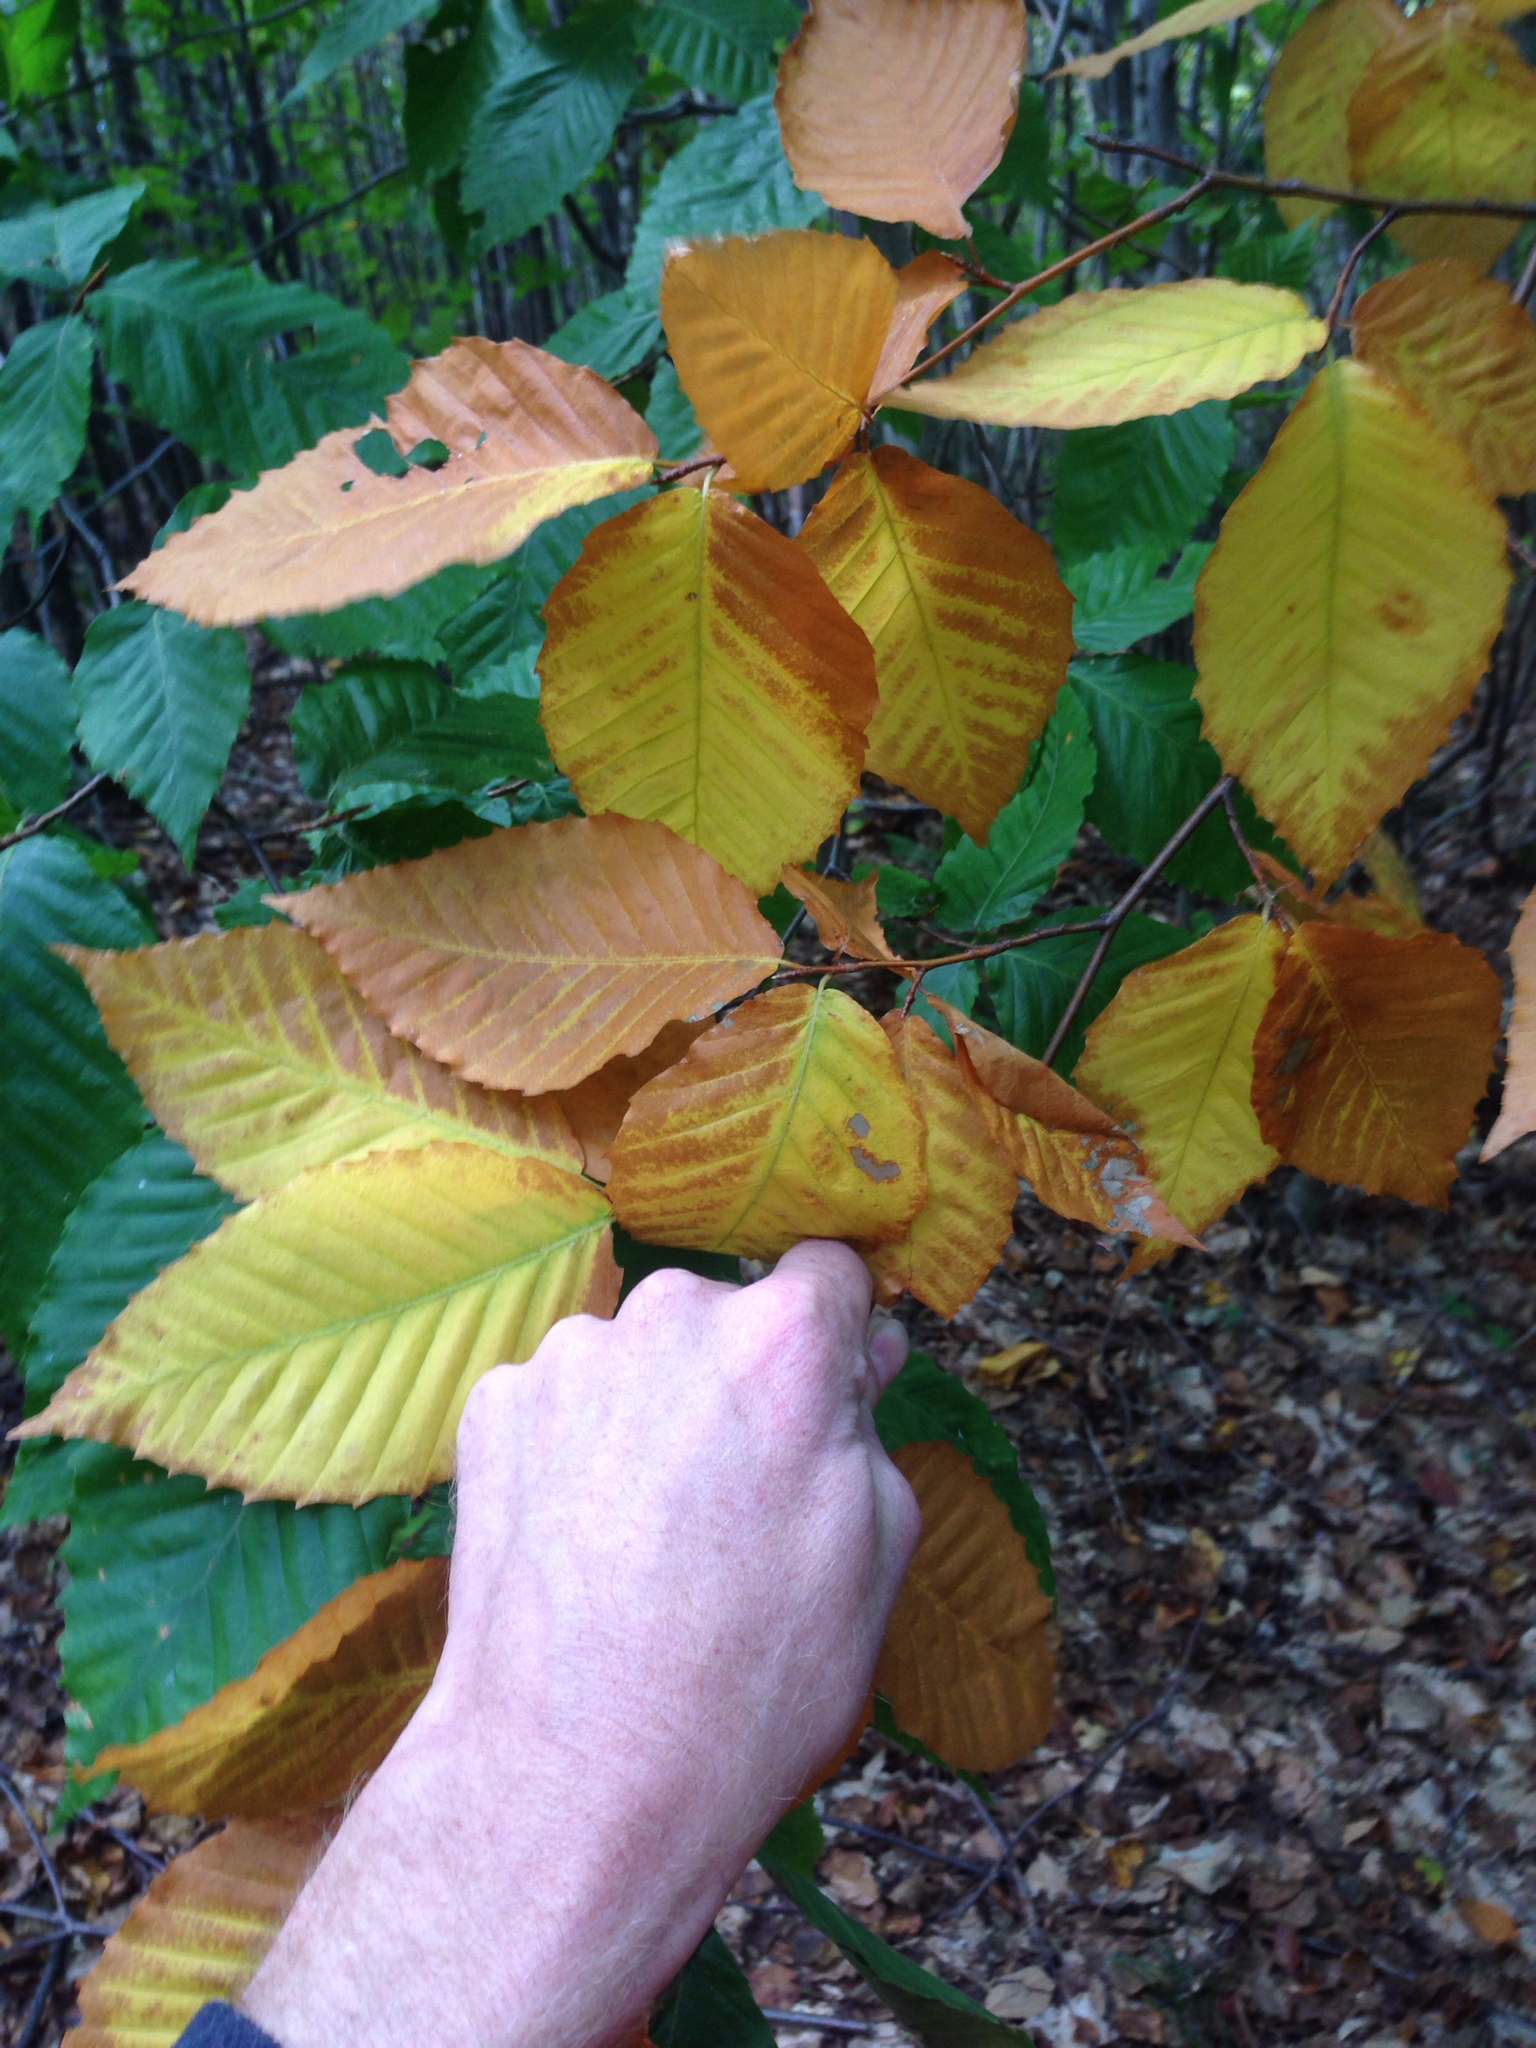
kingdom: Plantae
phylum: Tracheophyta
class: Magnoliopsida
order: Fagales
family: Fagaceae
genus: Fagus
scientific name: Fagus grandifolia
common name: American beech
